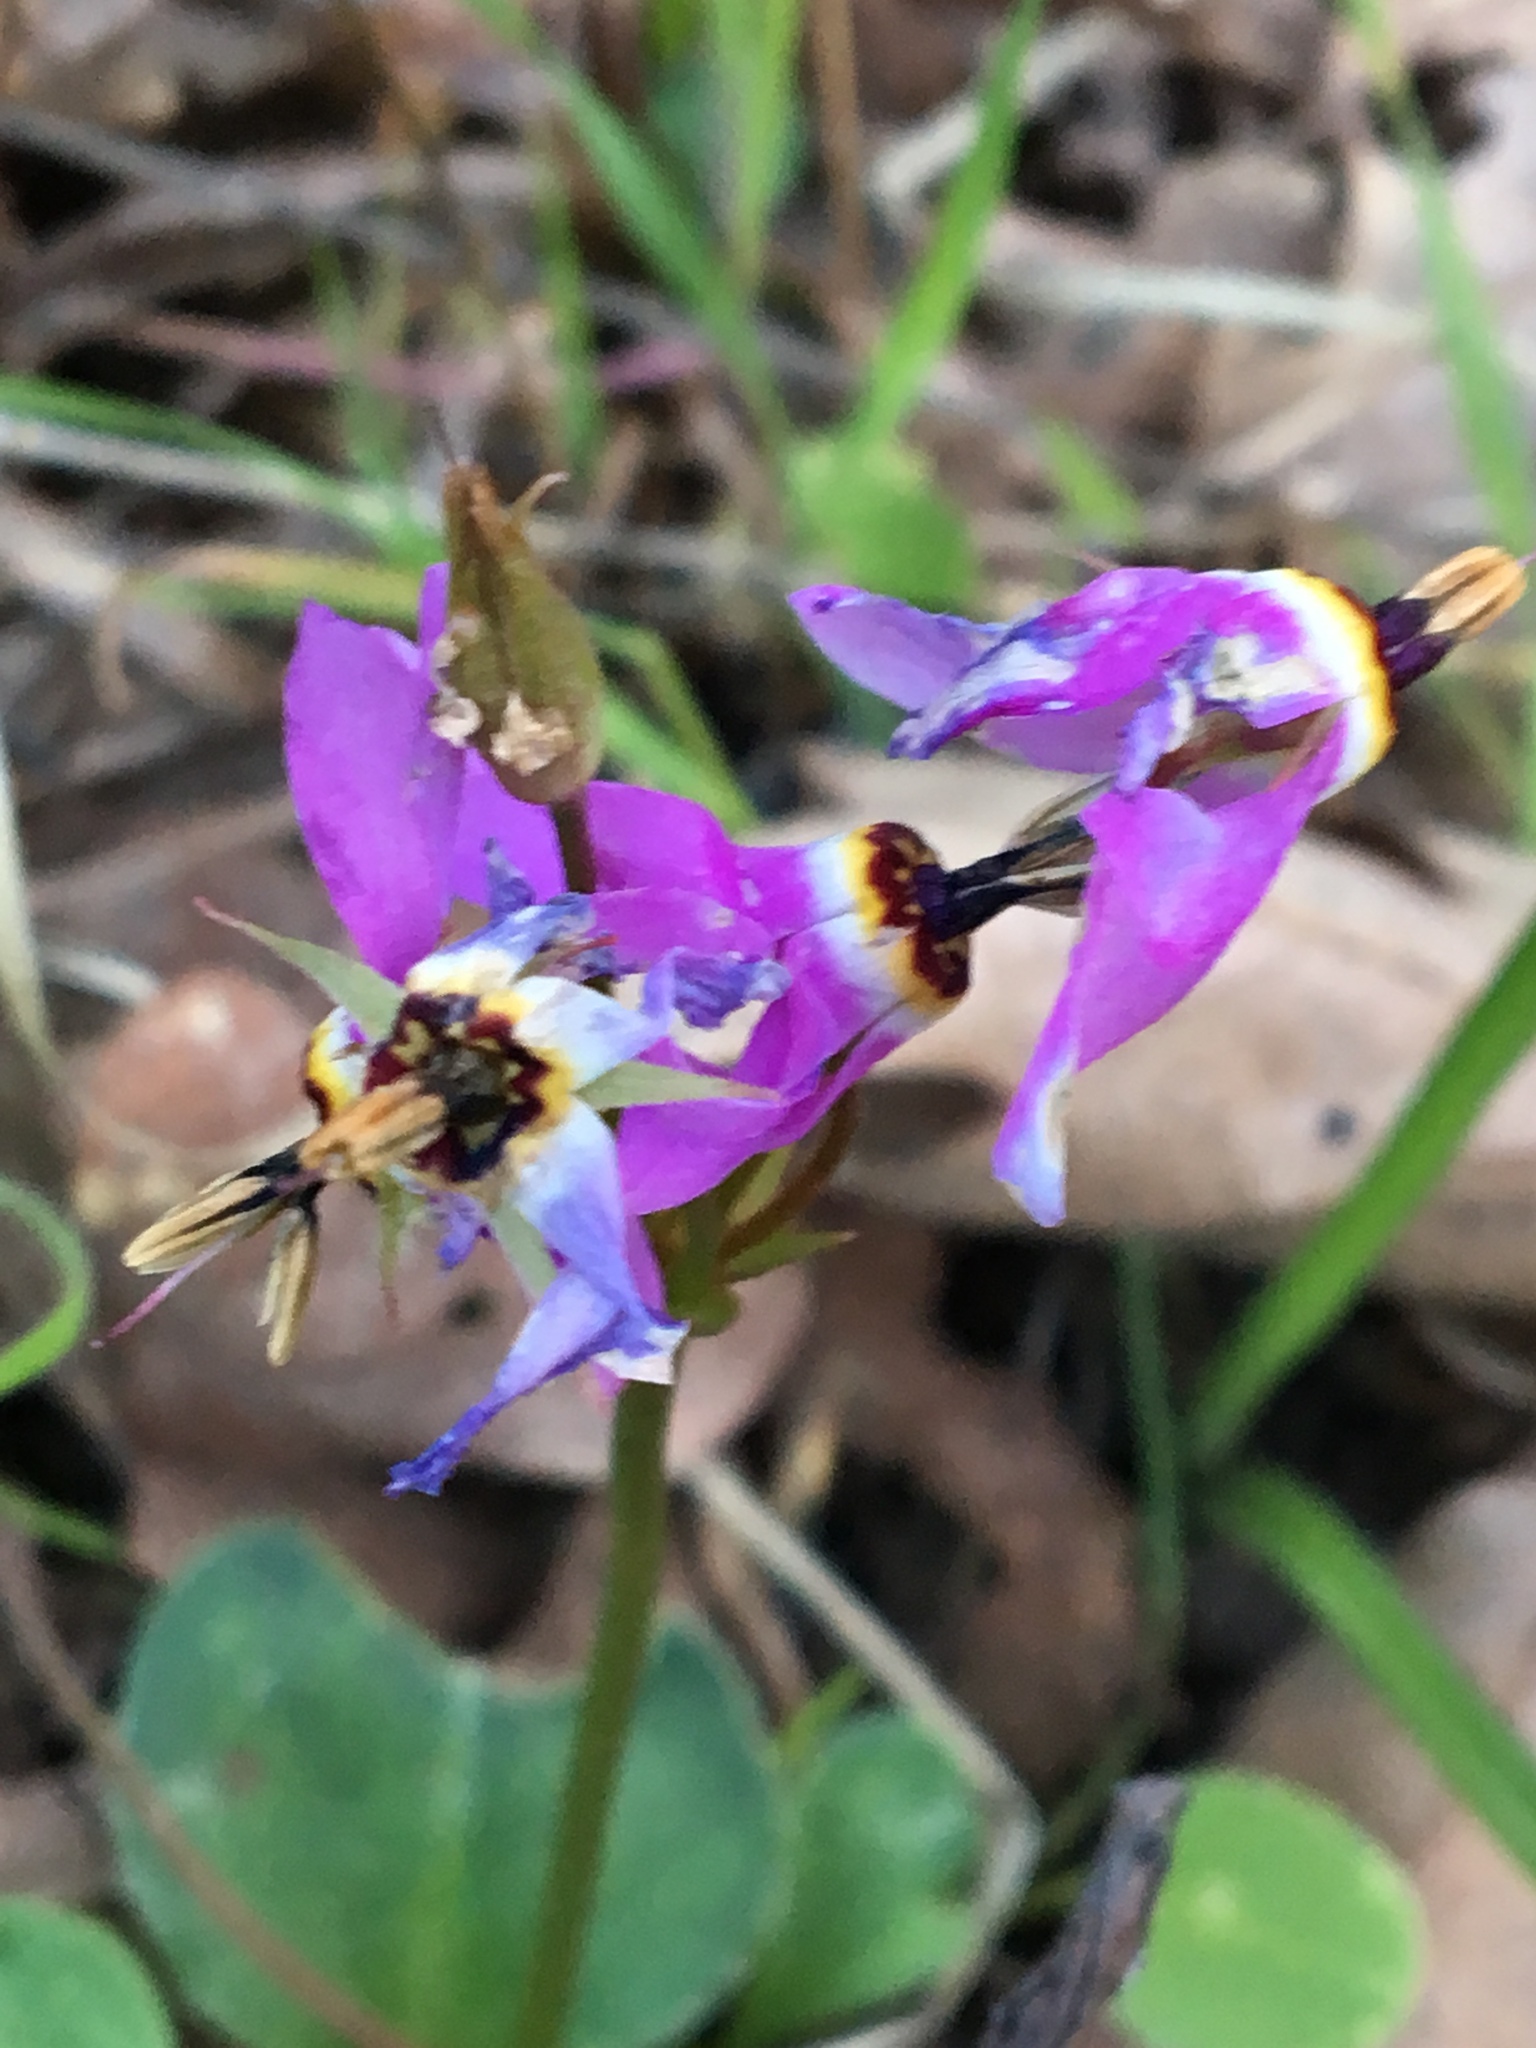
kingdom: Plantae
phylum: Tracheophyta
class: Magnoliopsida
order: Ericales
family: Primulaceae
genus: Dodecatheon
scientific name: Dodecatheon hendersonii
